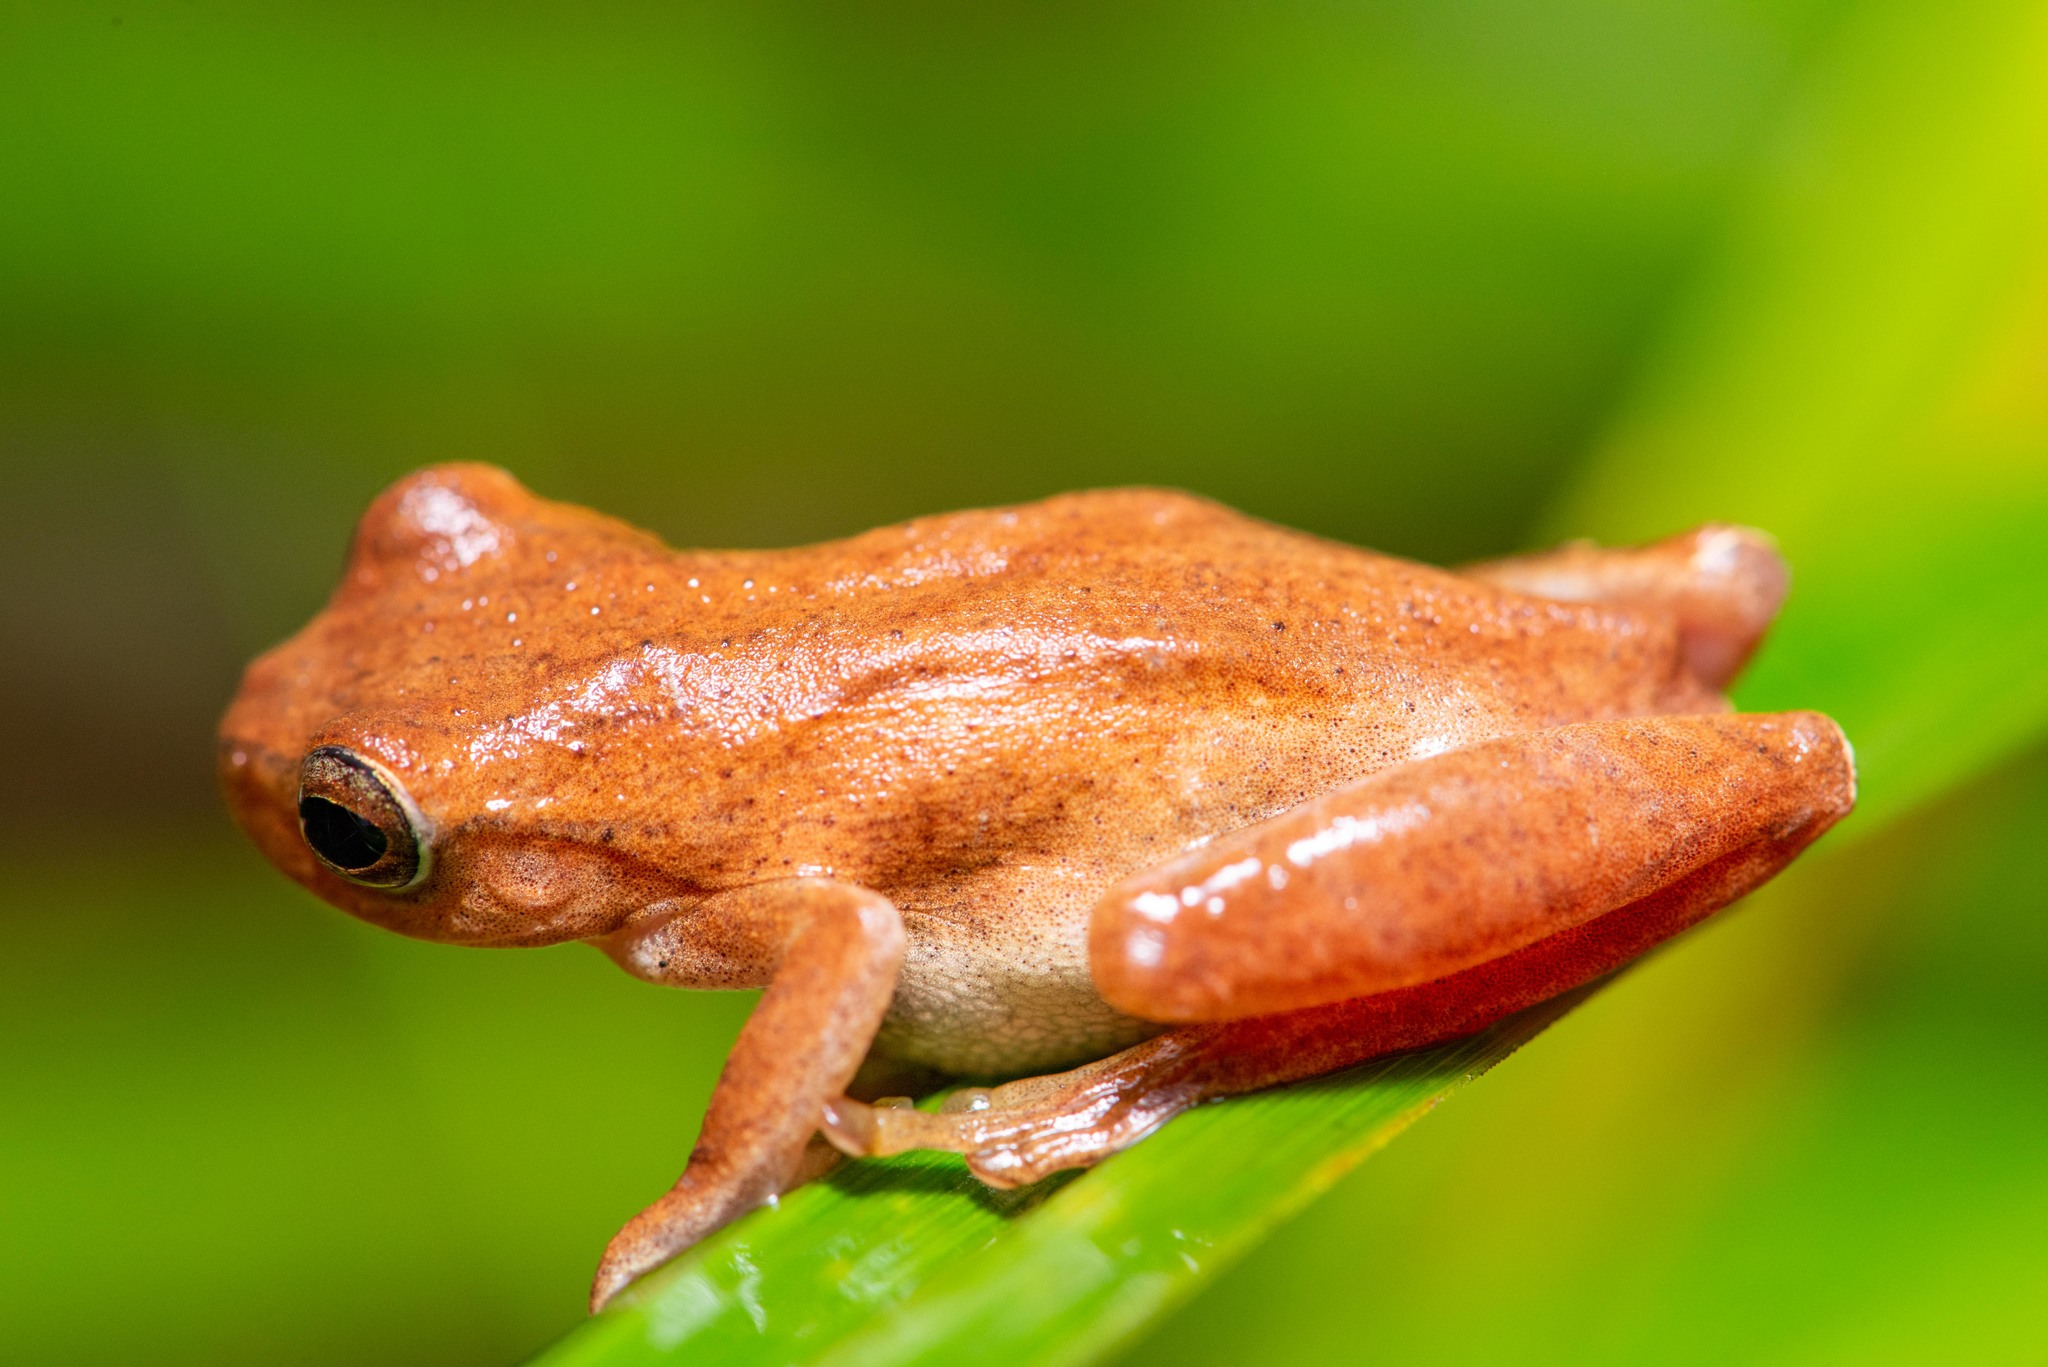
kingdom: Animalia
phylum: Chordata
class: Amphibia
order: Anura
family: Hylidae
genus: Dendropsophus
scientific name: Dendropsophus minutus
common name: Lesser treefrog
